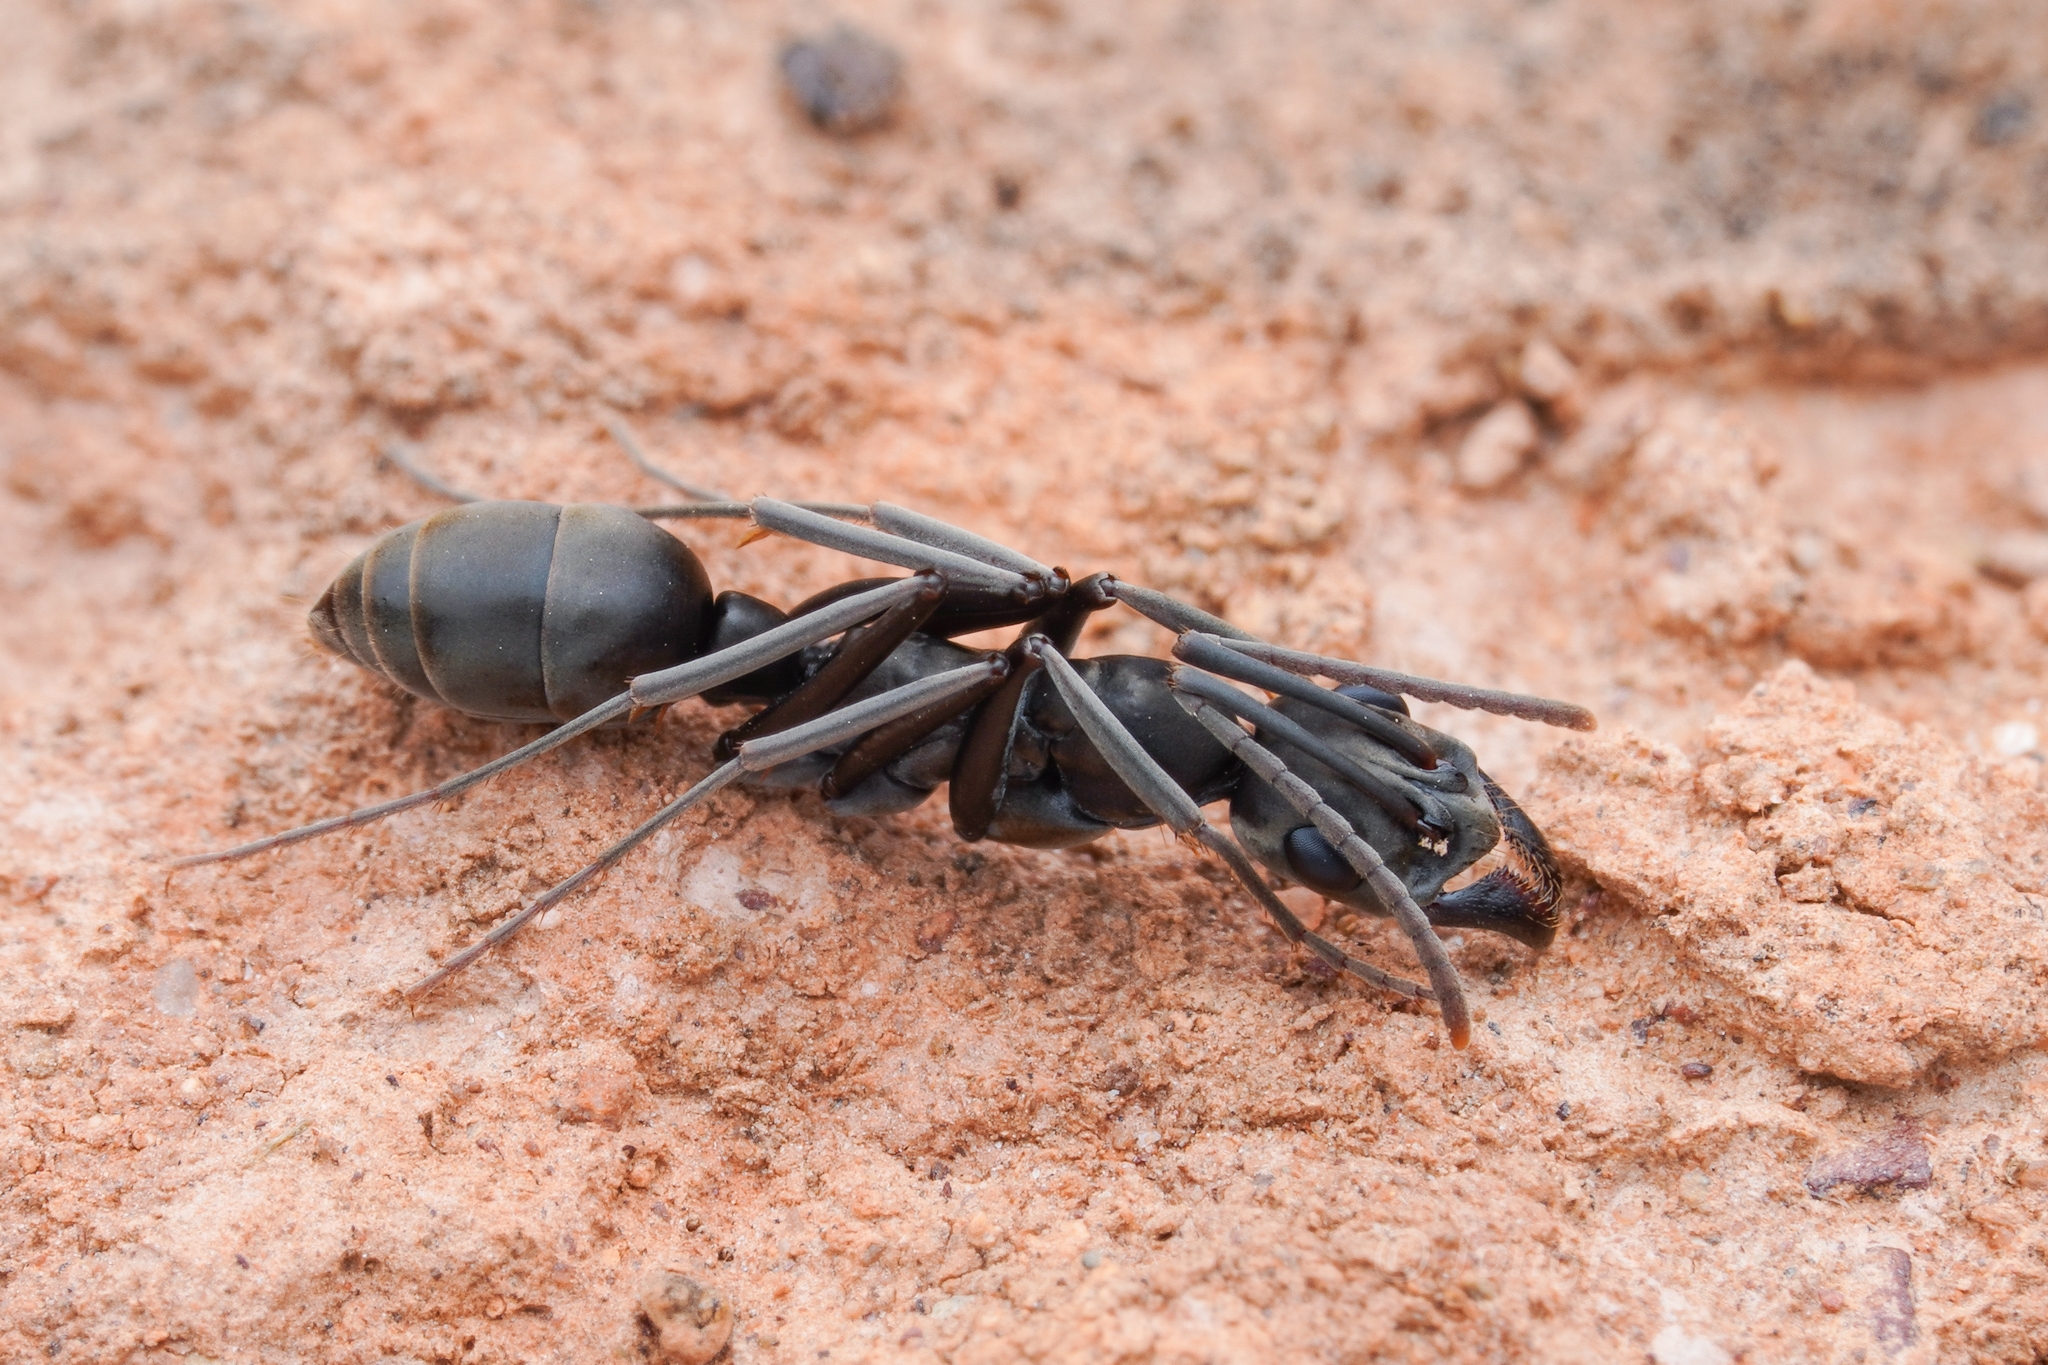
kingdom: Animalia
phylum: Arthropoda
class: Insecta
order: Hymenoptera
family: Formicidae
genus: Ophthalmopone
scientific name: Ophthalmopone
